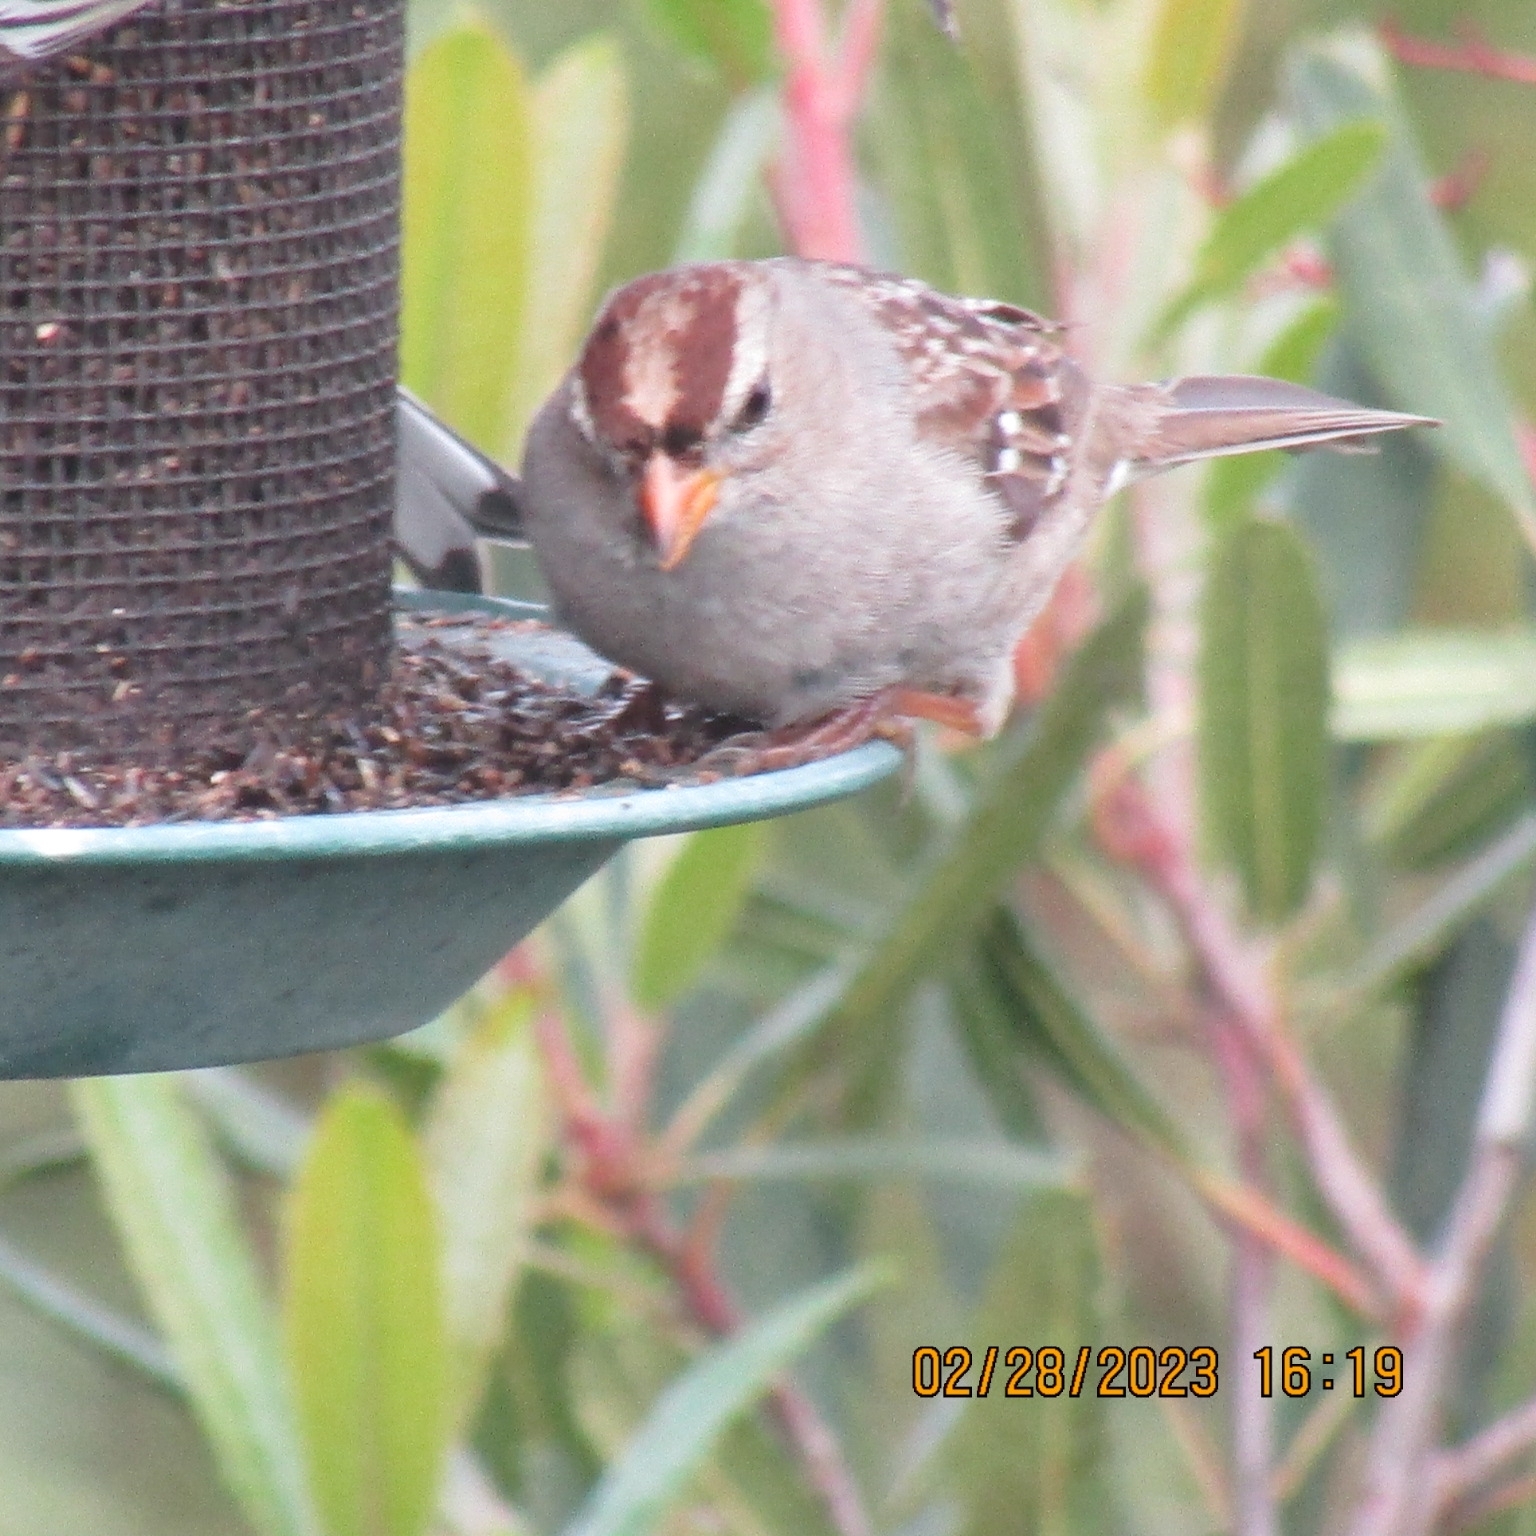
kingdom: Animalia
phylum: Chordata
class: Aves
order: Passeriformes
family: Passerellidae
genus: Zonotrichia
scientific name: Zonotrichia leucophrys
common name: White-crowned sparrow
